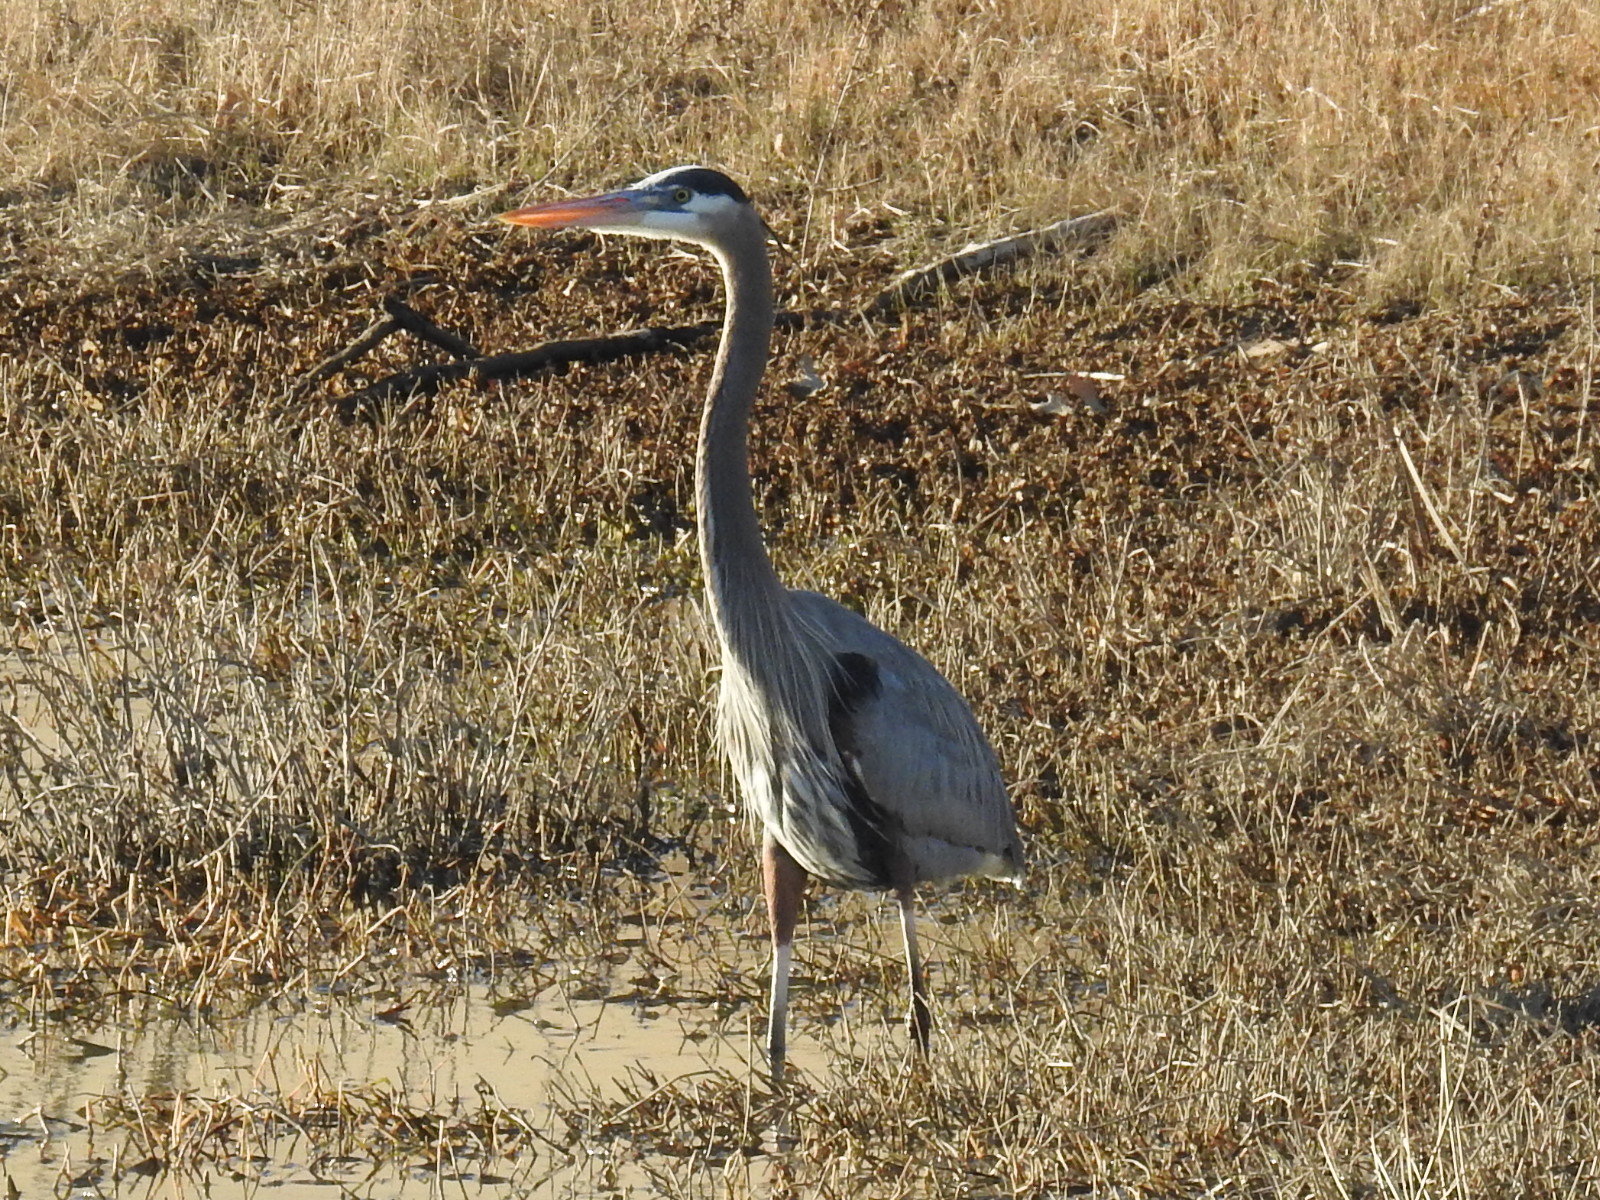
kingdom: Animalia
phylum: Chordata
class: Aves
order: Pelecaniformes
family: Ardeidae
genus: Ardea
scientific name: Ardea herodias
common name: Great blue heron
